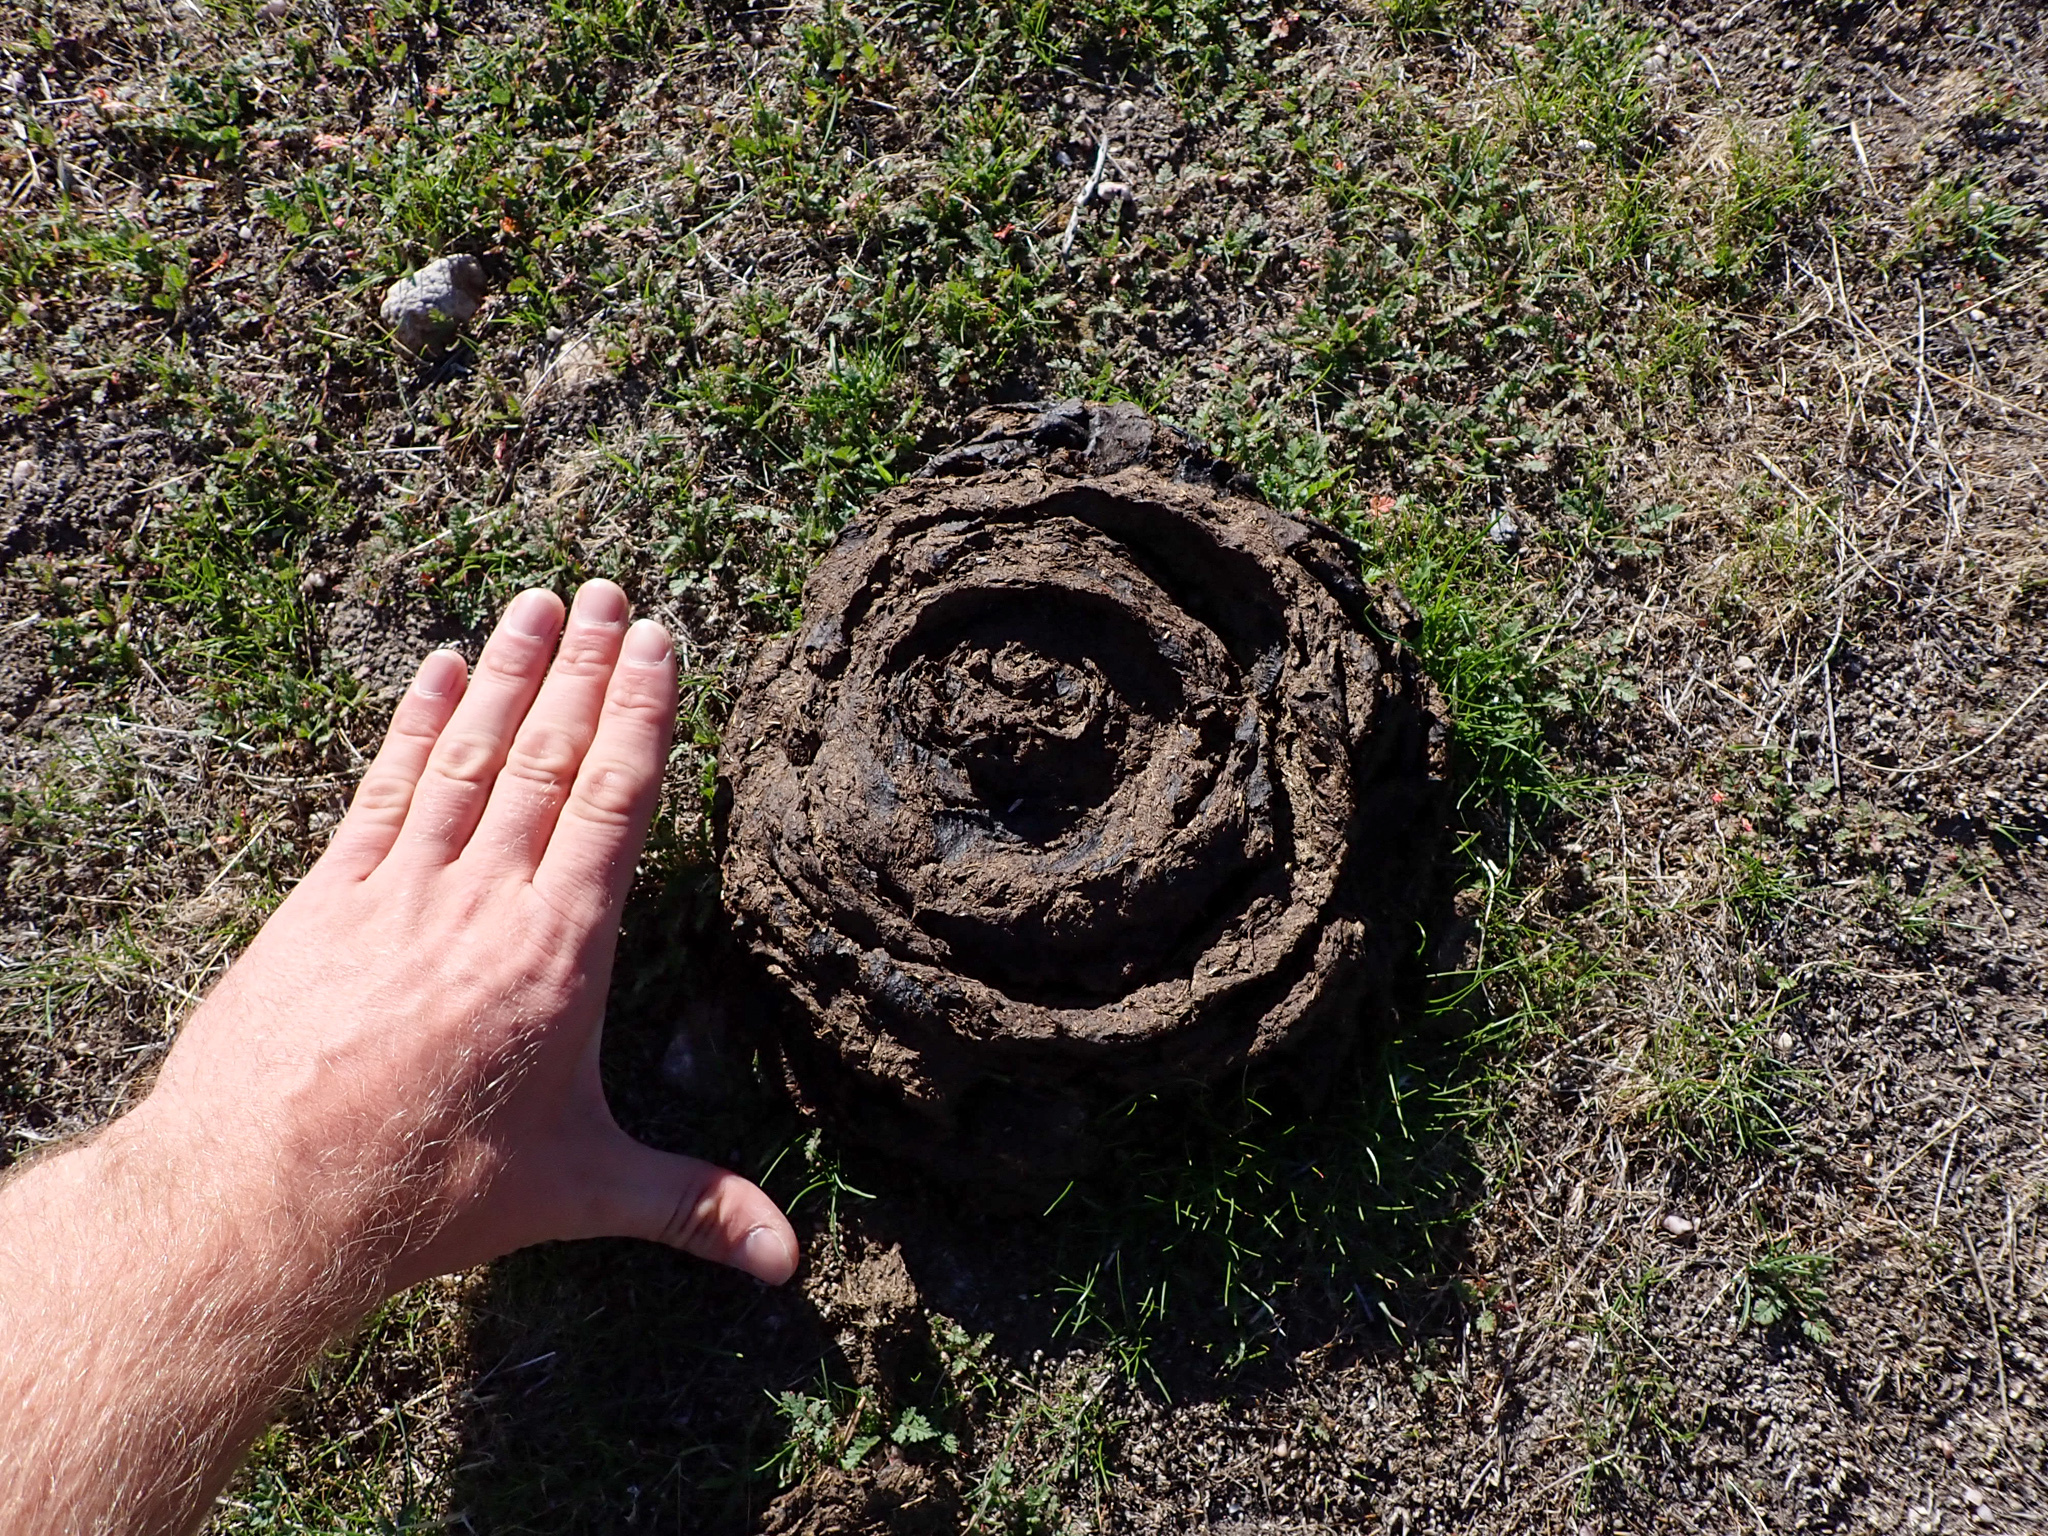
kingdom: Animalia
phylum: Chordata
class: Mammalia
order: Artiodactyla
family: Bovidae
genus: Bison
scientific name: Bison bison
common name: American bison
